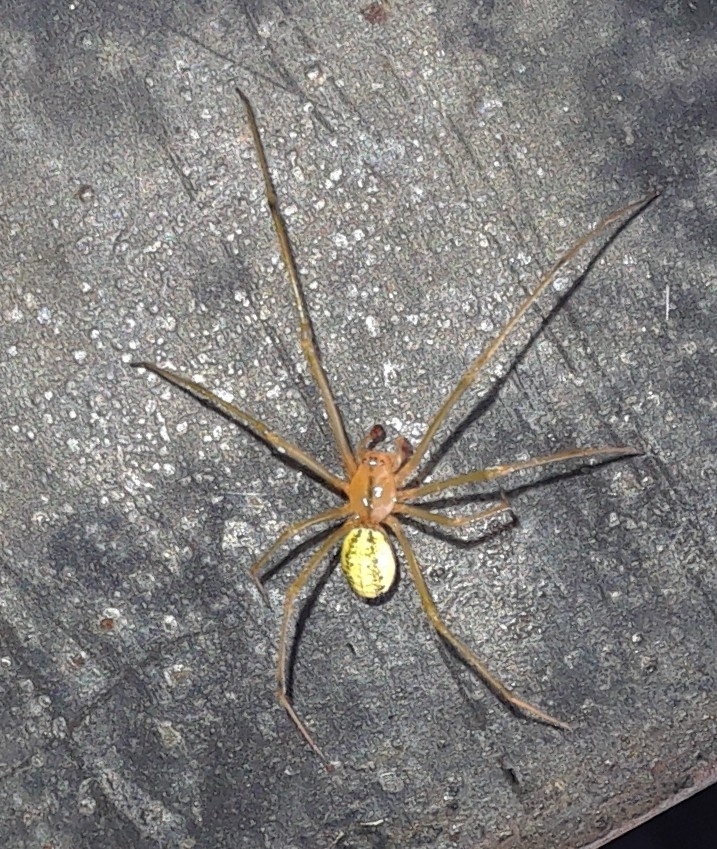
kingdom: Animalia
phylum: Arthropoda
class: Arachnida
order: Araneae
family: Theridiidae
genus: Enoplognatha
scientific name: Enoplognatha ovata
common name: Common candy-striped spider
